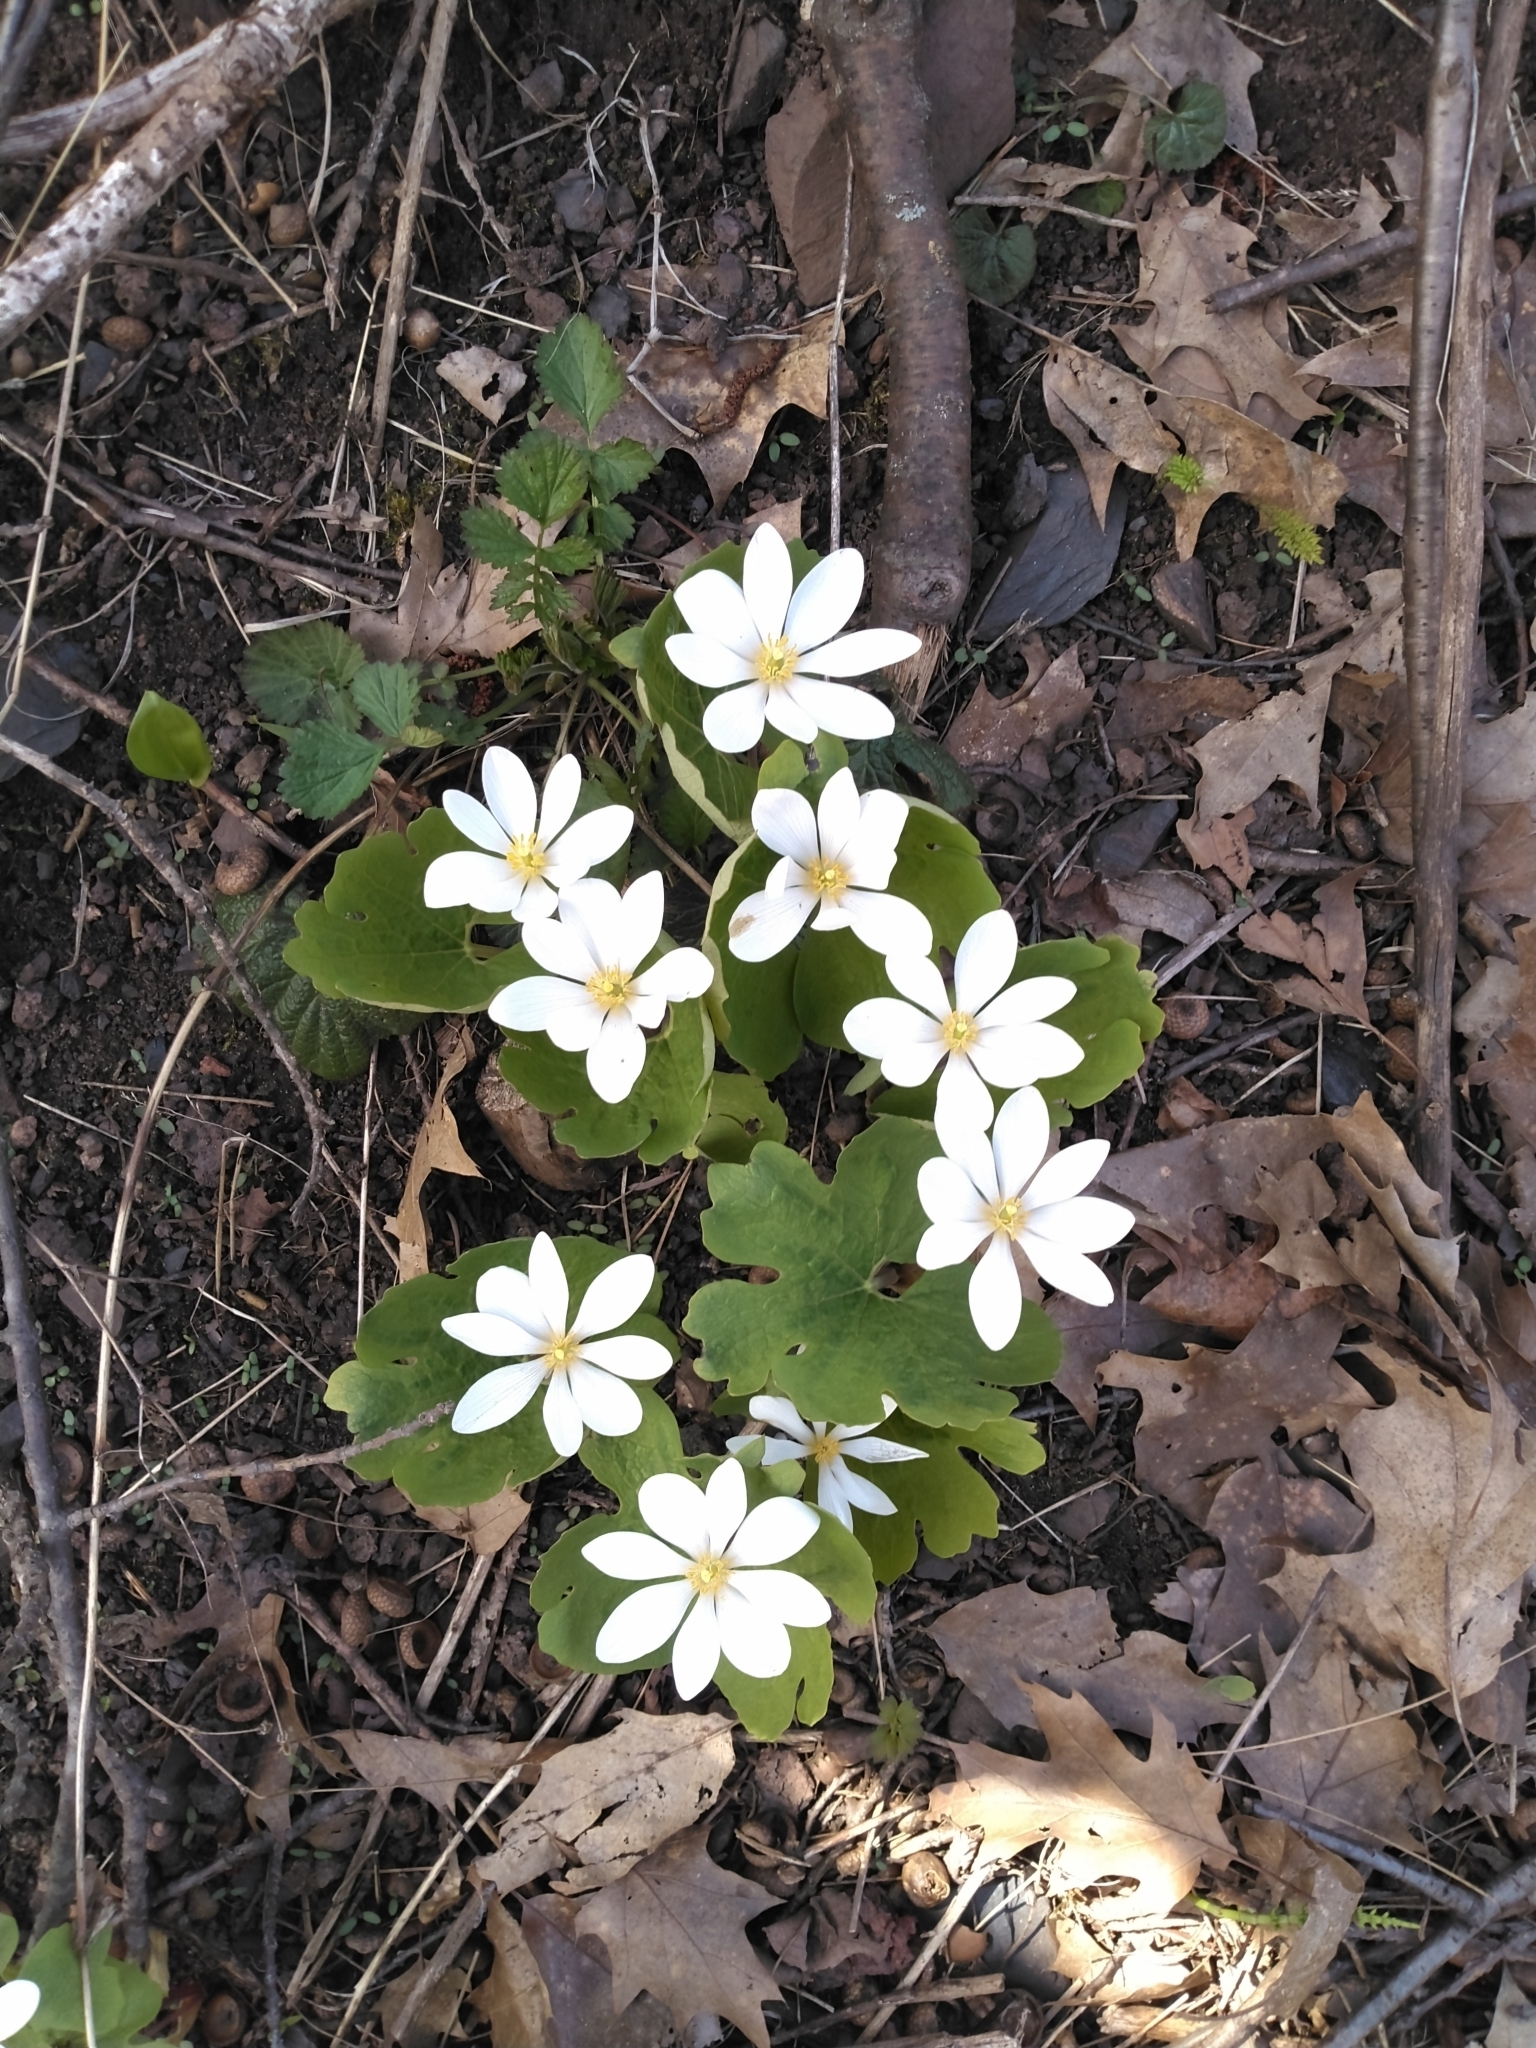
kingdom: Plantae
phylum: Tracheophyta
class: Magnoliopsida
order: Ranunculales
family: Papaveraceae
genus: Sanguinaria
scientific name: Sanguinaria canadensis
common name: Bloodroot
